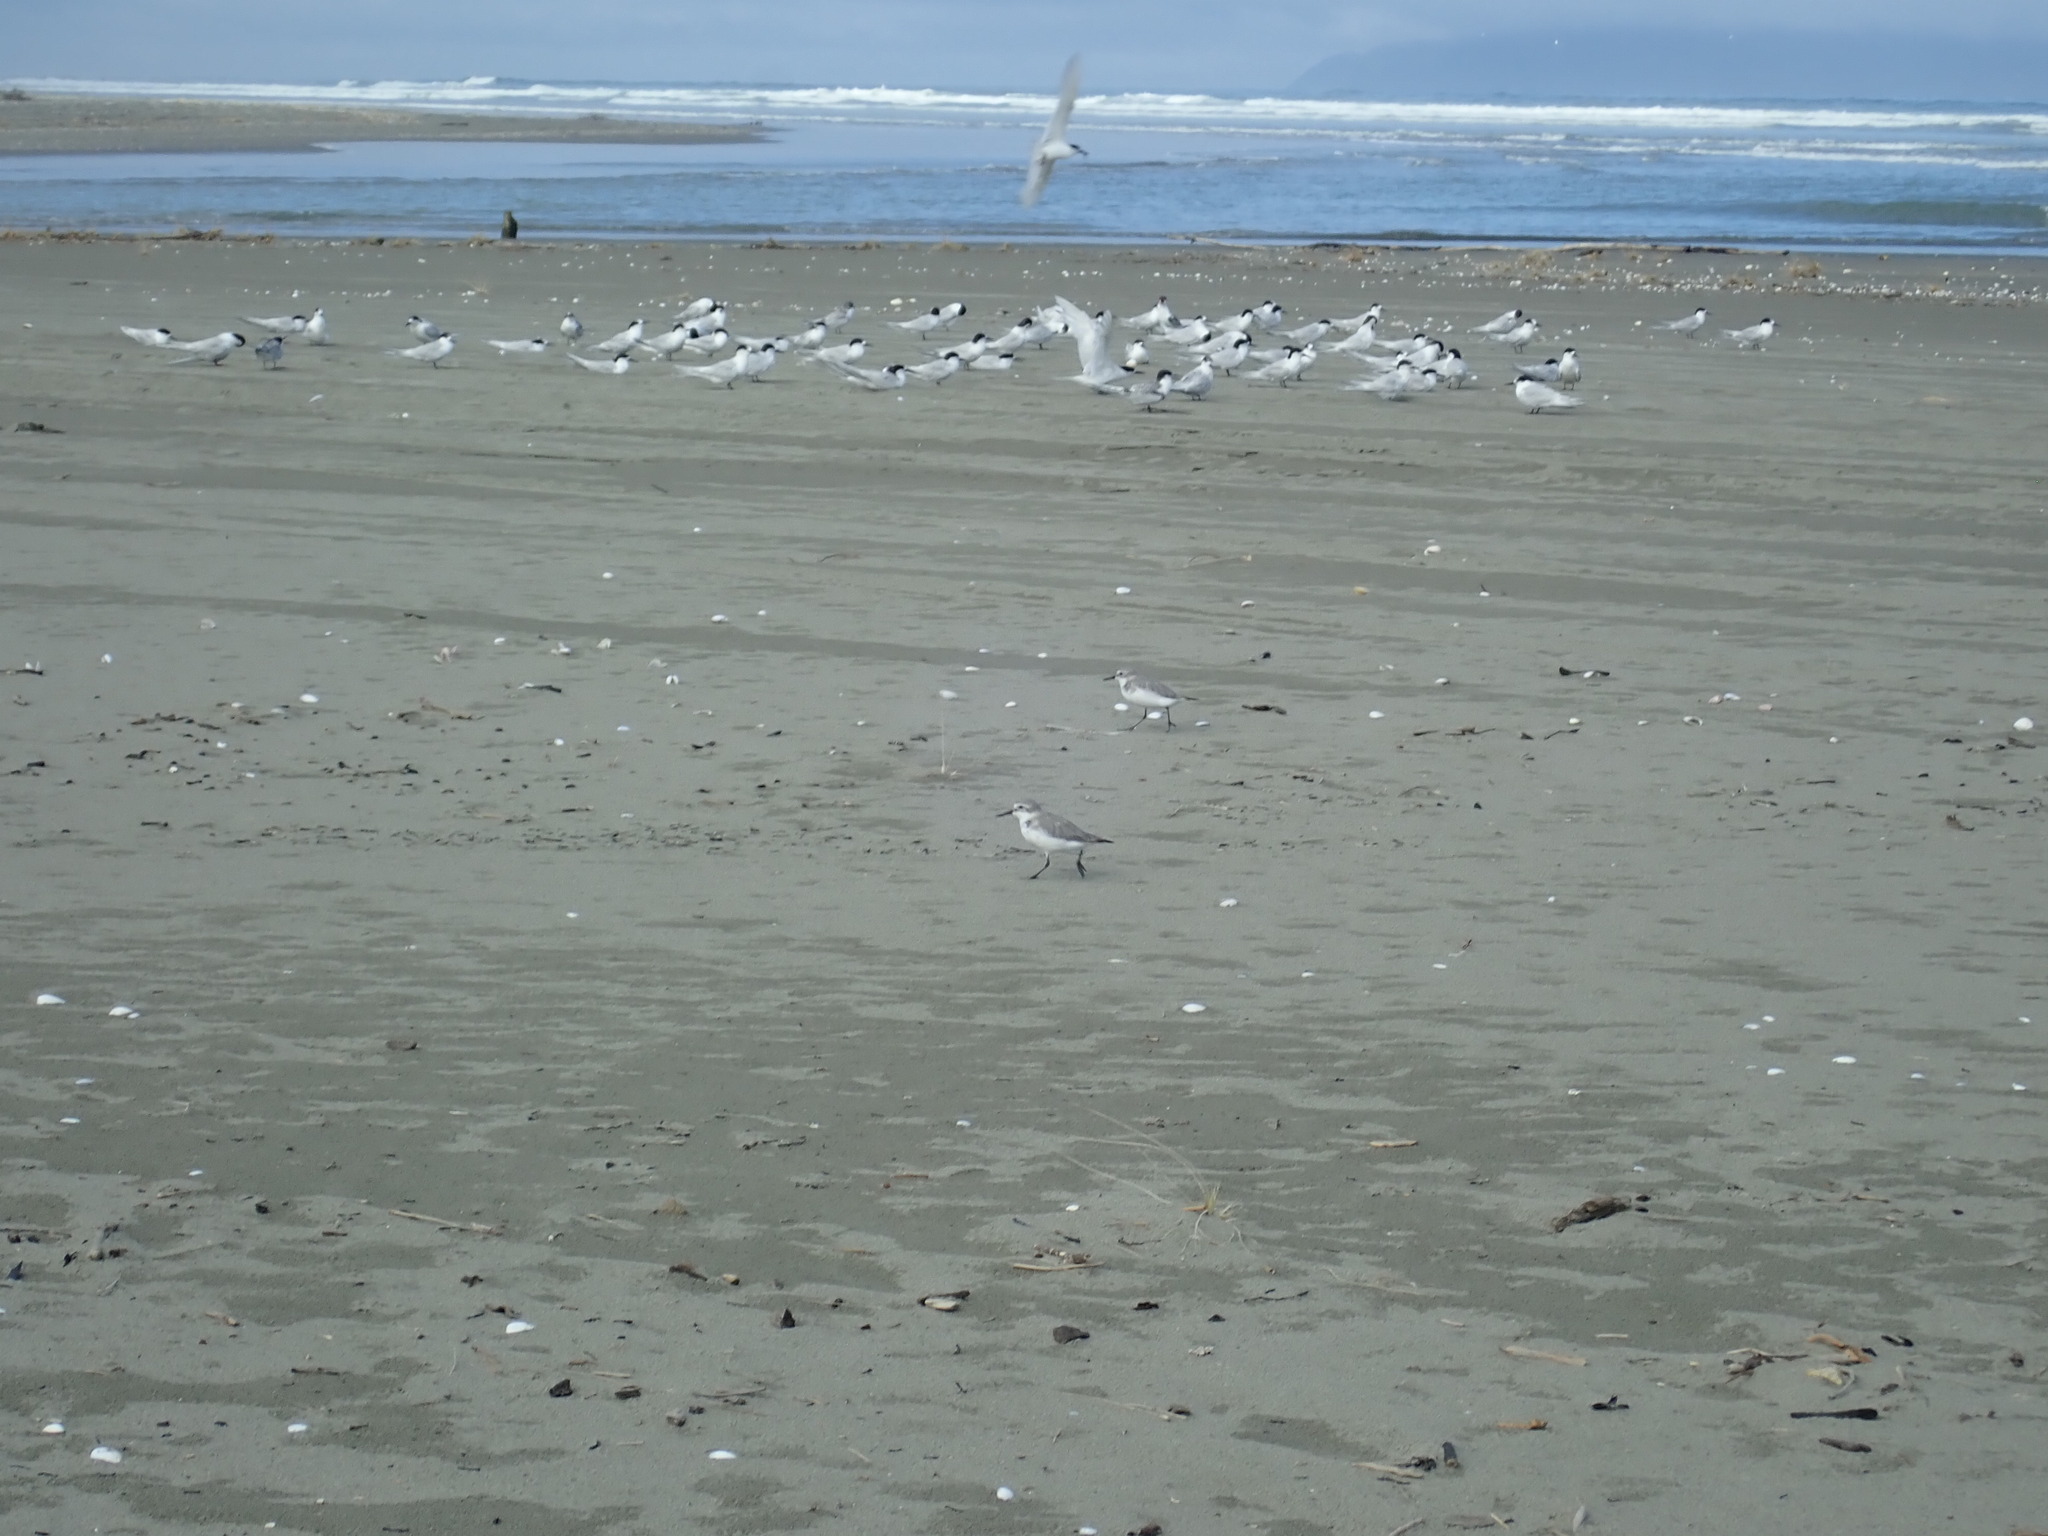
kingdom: Animalia
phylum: Chordata
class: Aves
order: Charadriiformes
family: Laridae
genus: Sterna
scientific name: Sterna striata
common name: White-fronted tern
